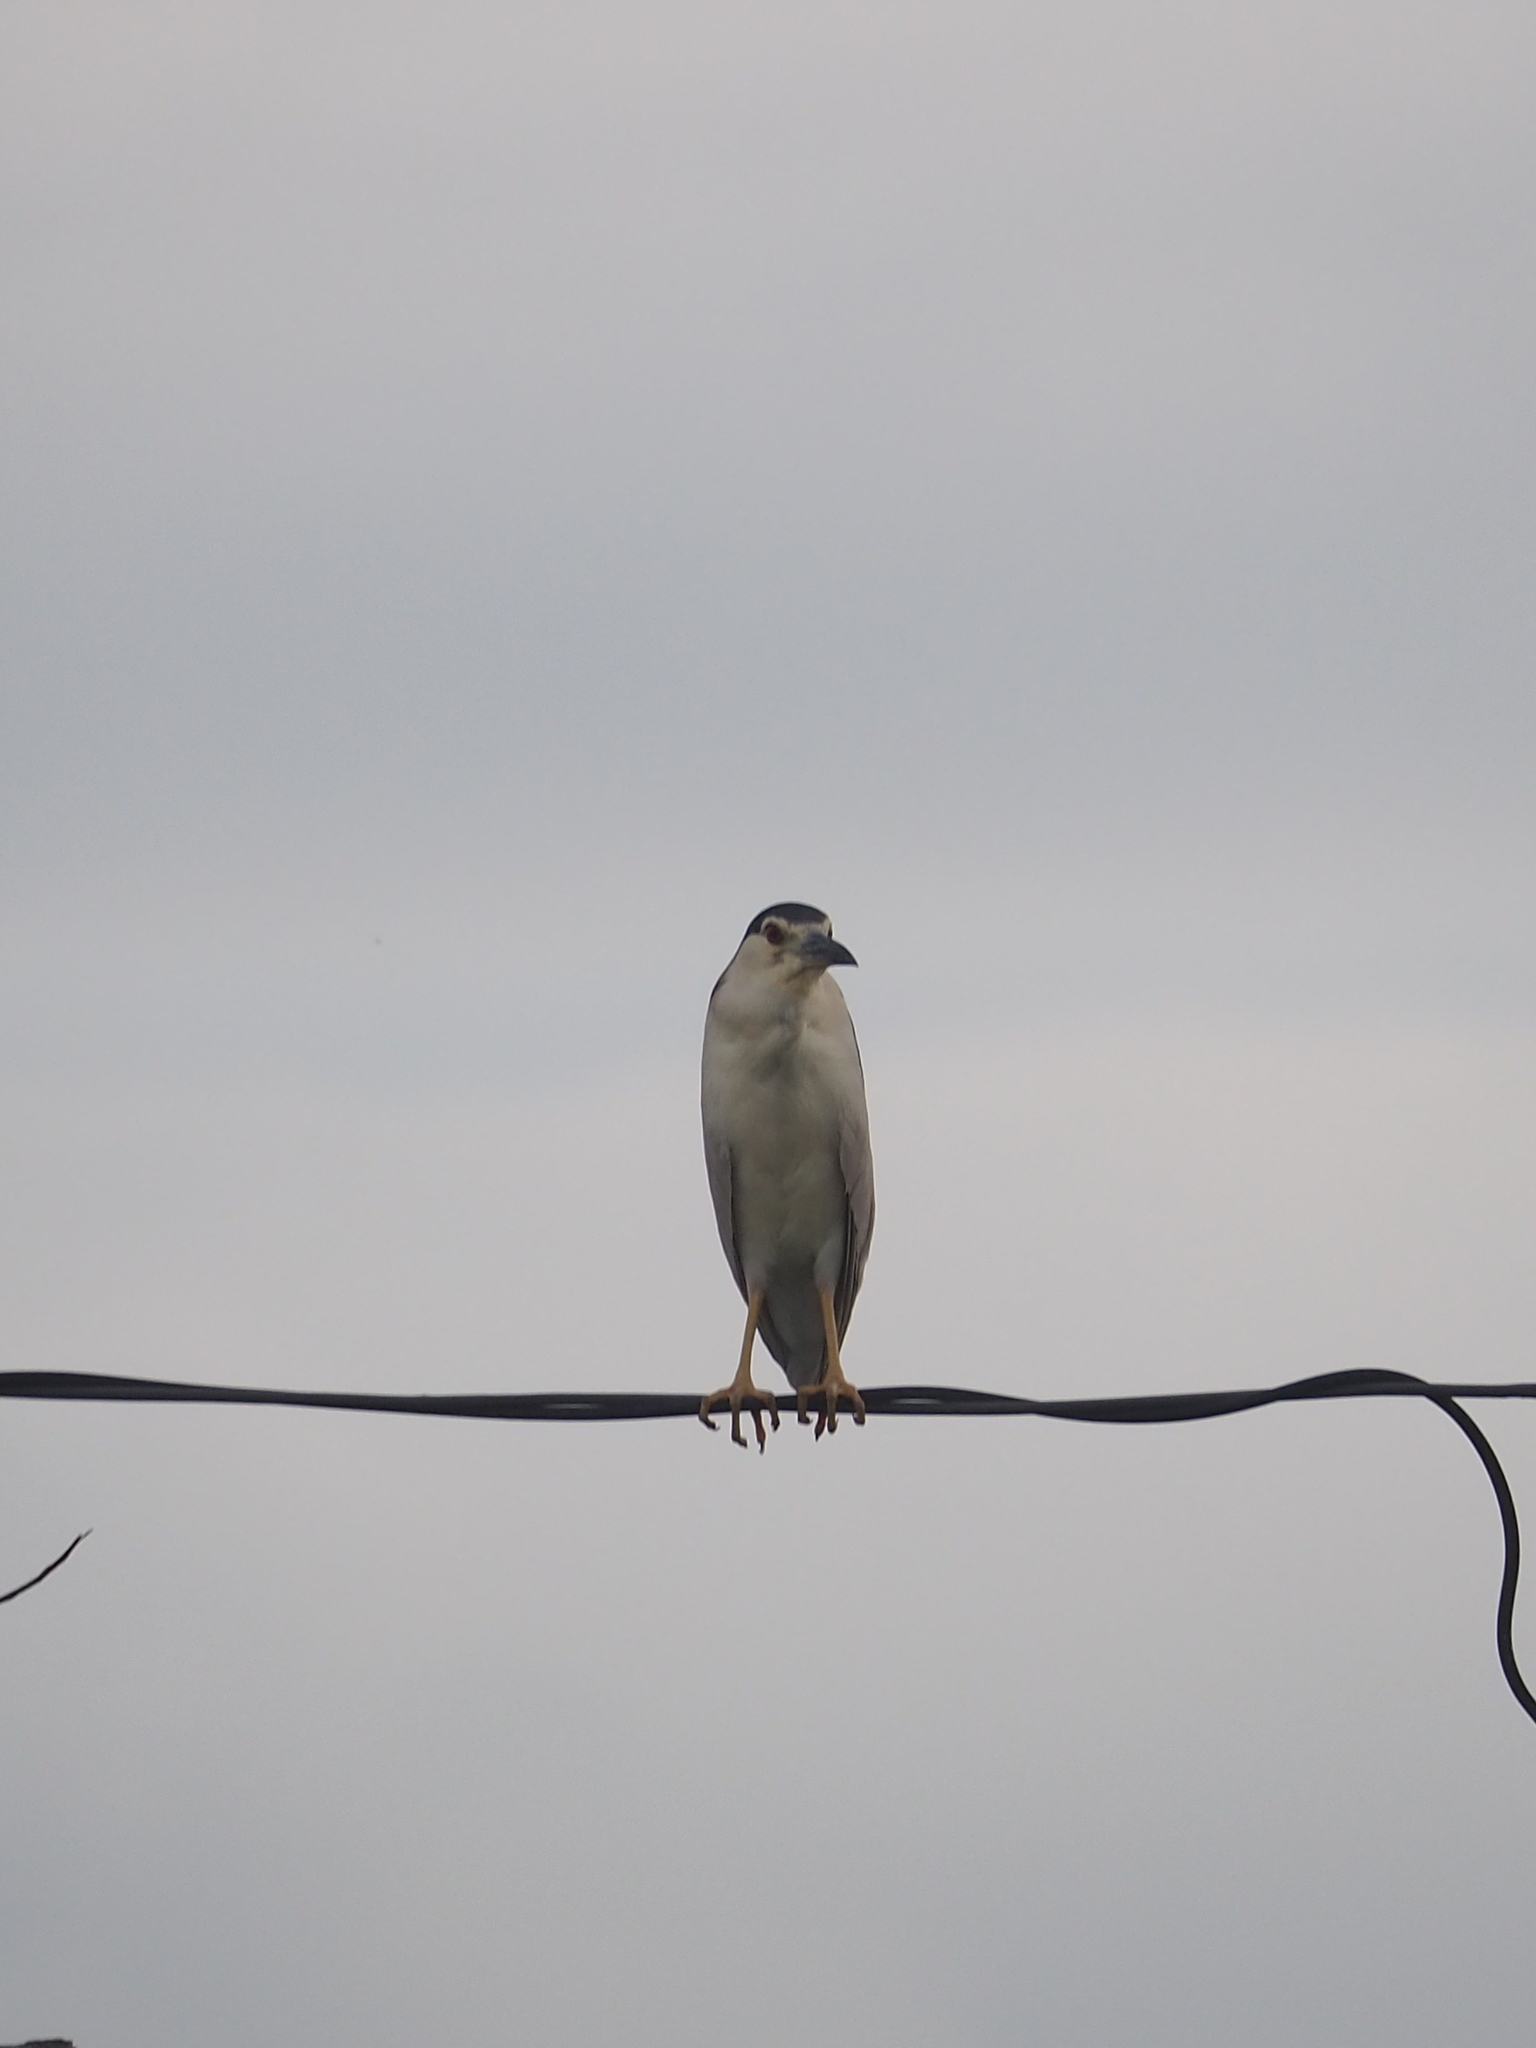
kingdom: Animalia
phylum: Chordata
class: Aves
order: Pelecaniformes
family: Ardeidae
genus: Nycticorax
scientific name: Nycticorax nycticorax
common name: Black-crowned night heron
